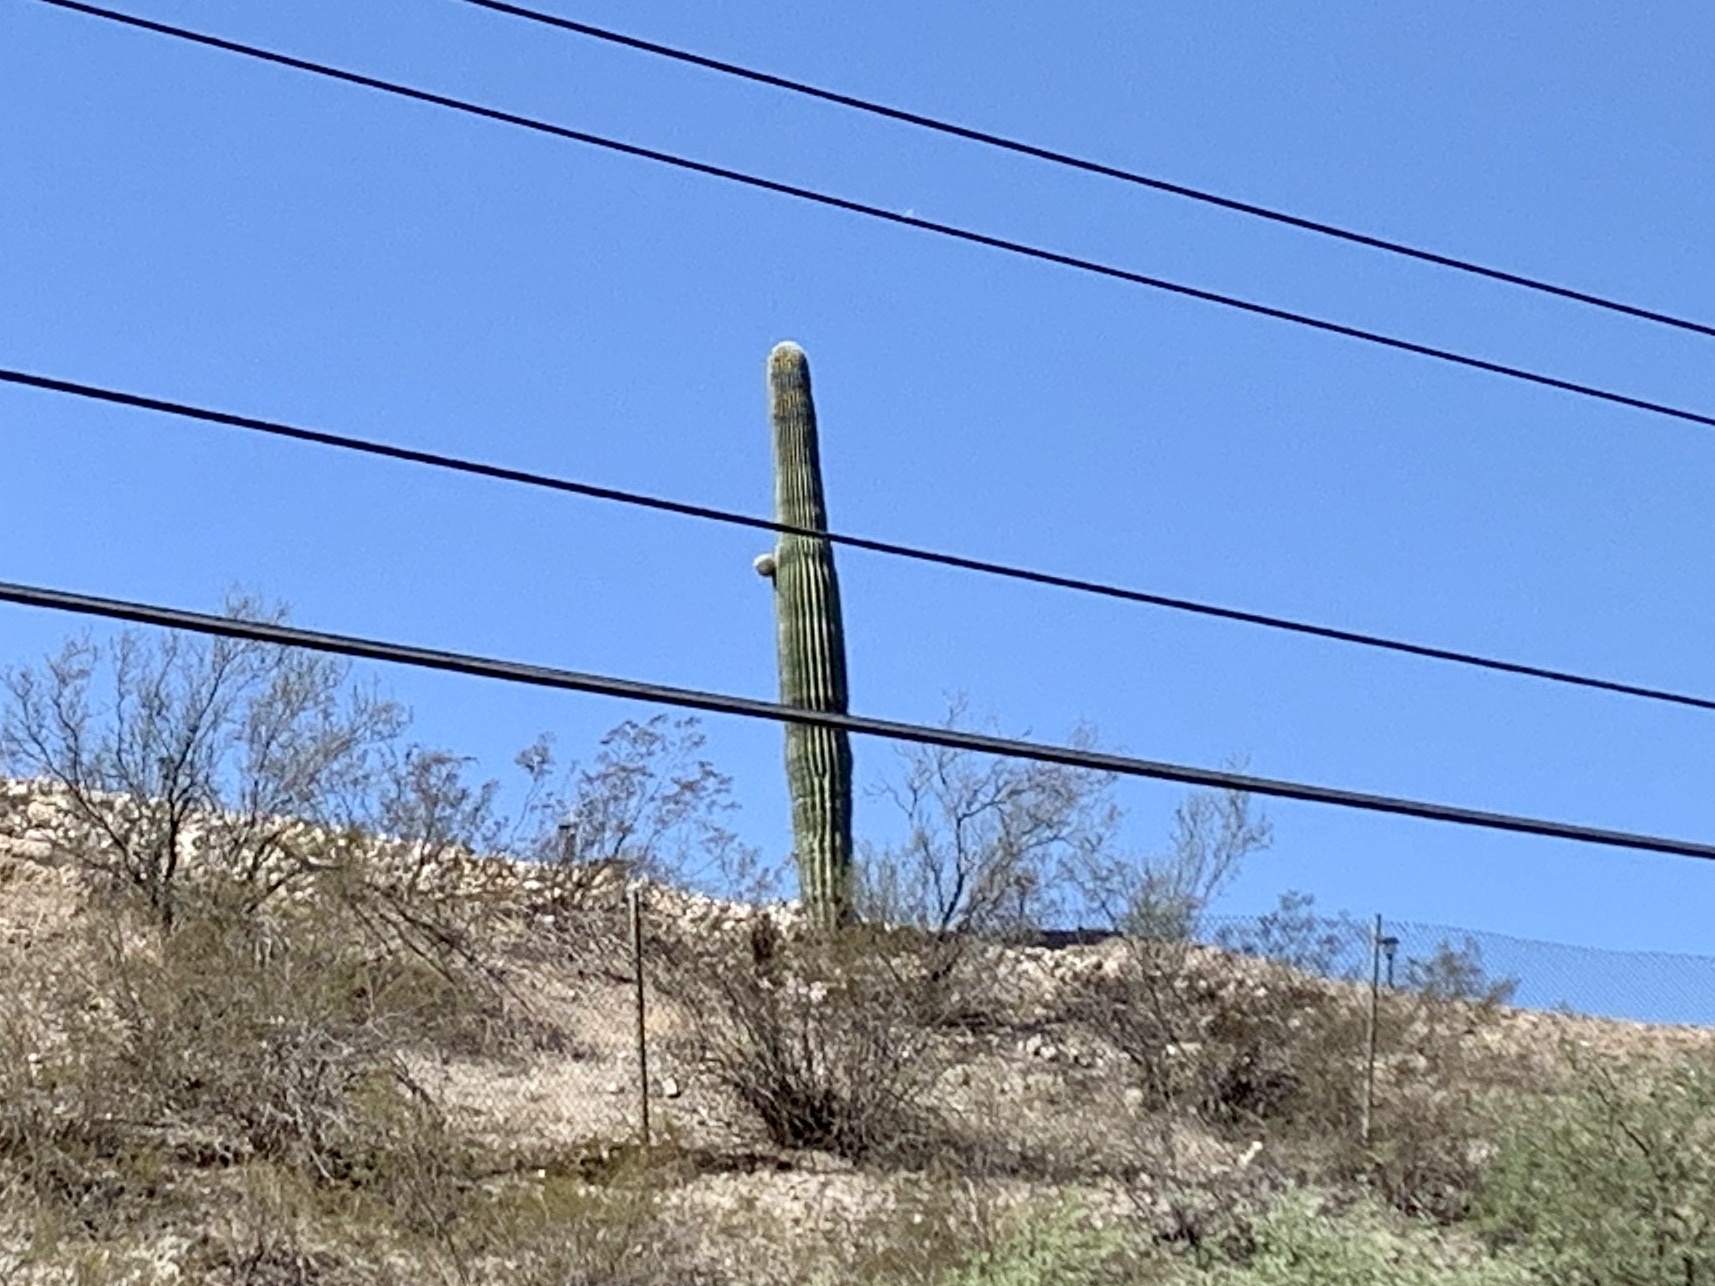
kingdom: Plantae
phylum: Tracheophyta
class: Magnoliopsida
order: Caryophyllales
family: Cactaceae
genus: Carnegiea
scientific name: Carnegiea gigantea
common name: Saguaro
